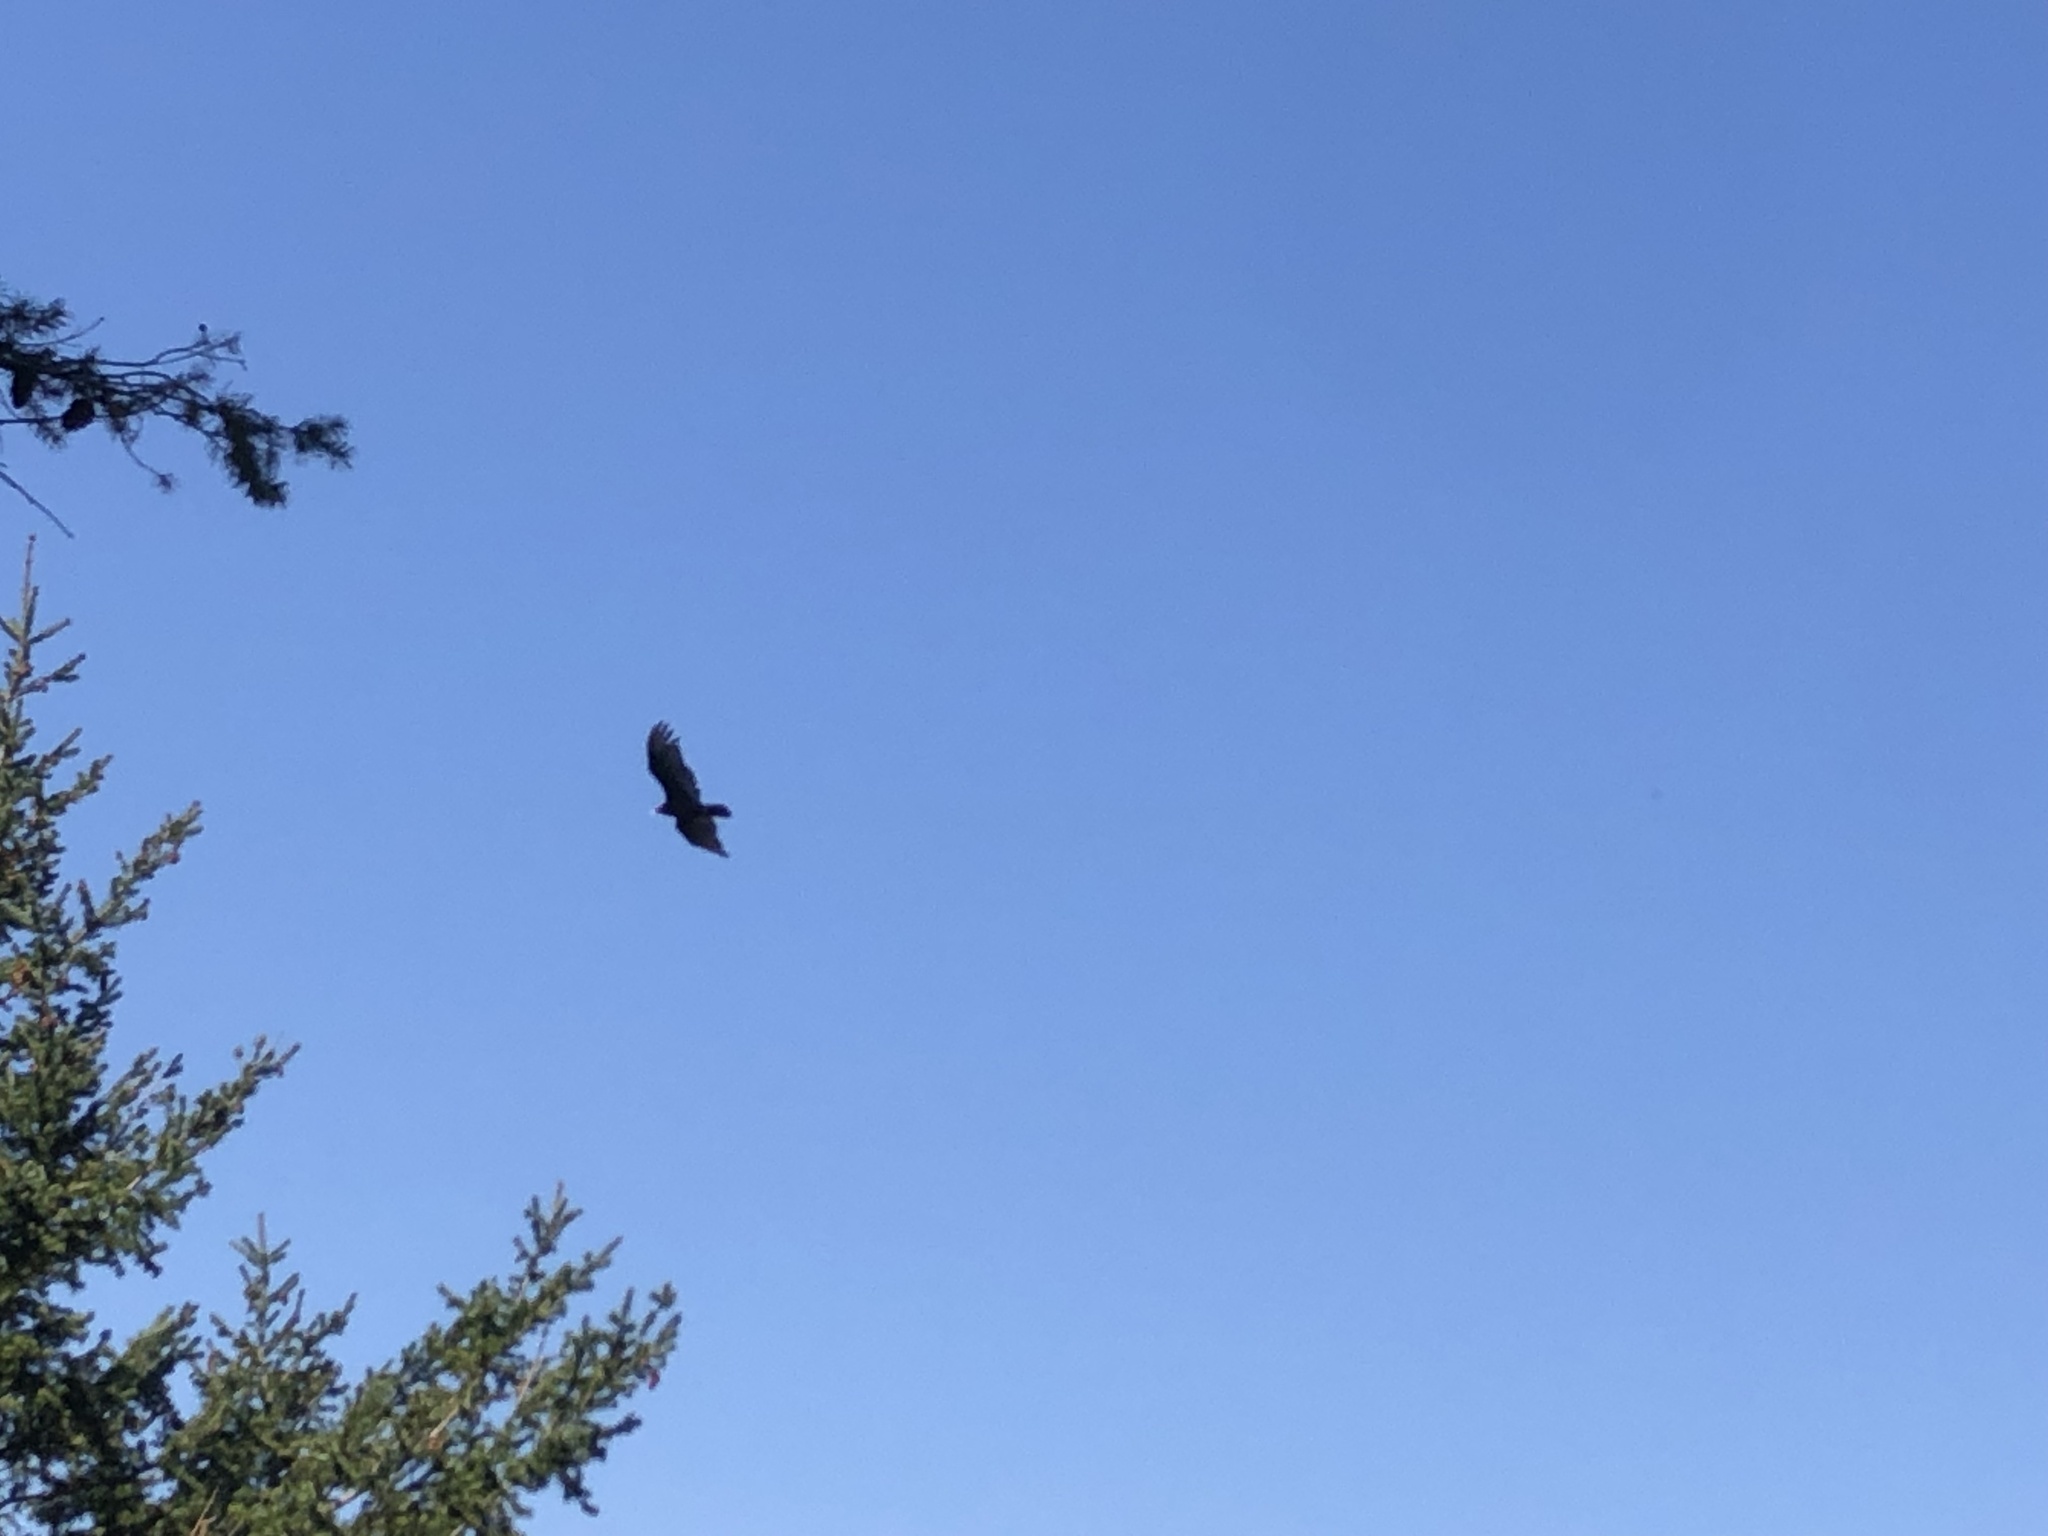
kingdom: Animalia
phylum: Chordata
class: Aves
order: Accipitriformes
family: Cathartidae
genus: Cathartes
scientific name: Cathartes aura
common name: Turkey vulture
